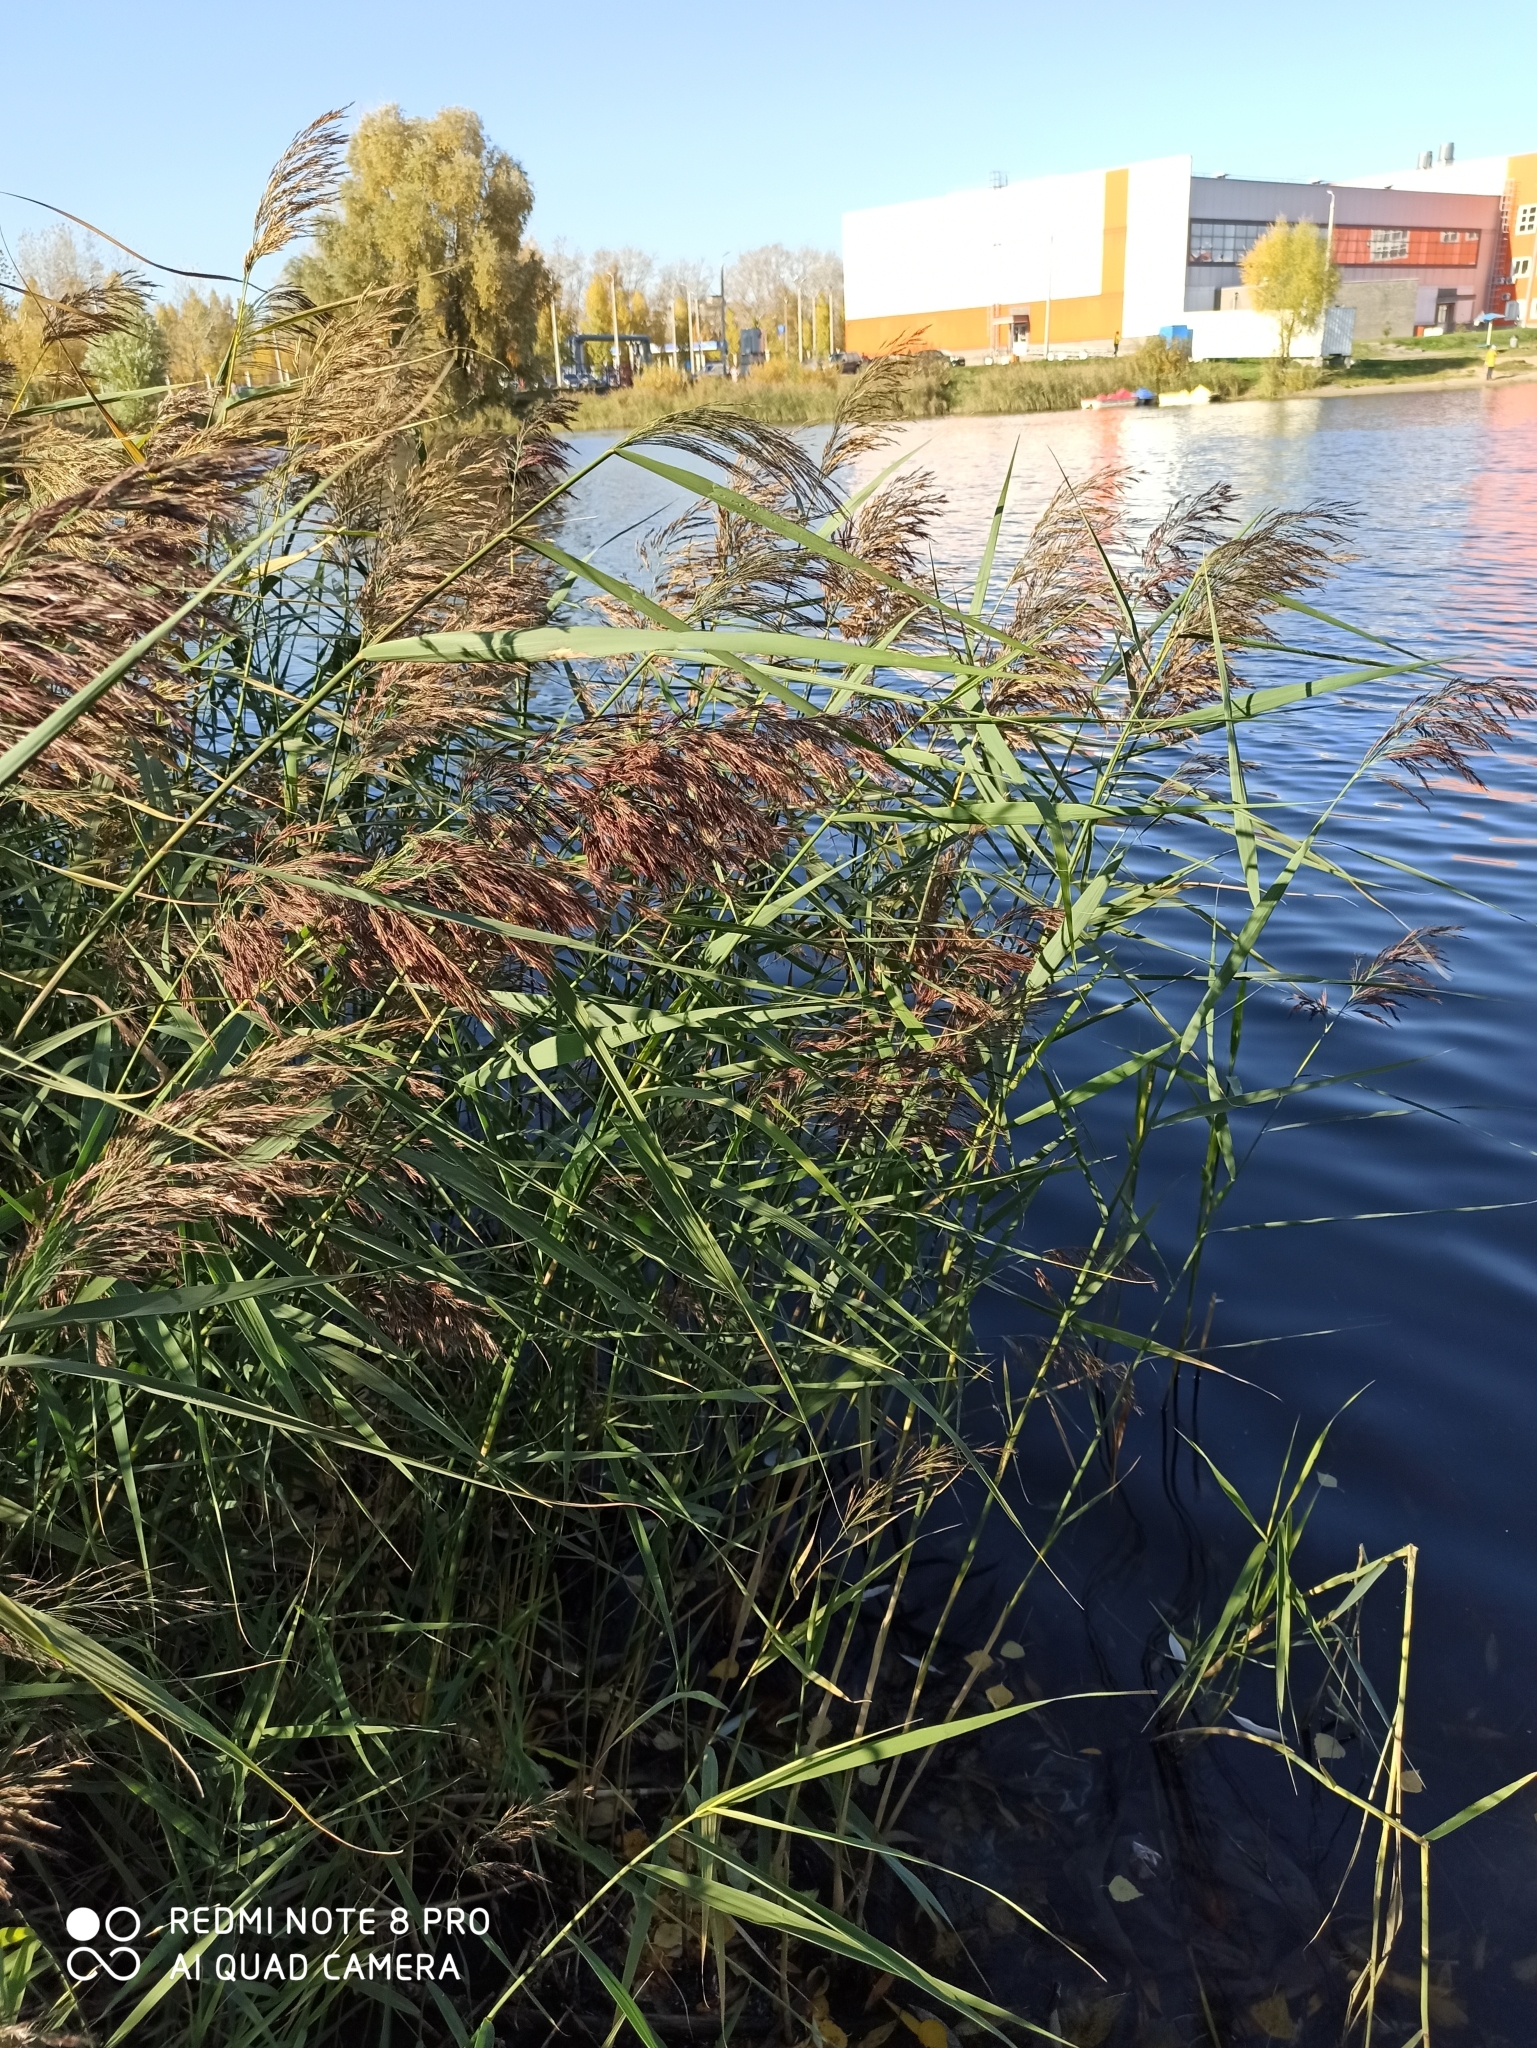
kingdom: Plantae
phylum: Tracheophyta
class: Liliopsida
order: Poales
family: Poaceae
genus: Phragmites
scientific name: Phragmites australis
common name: Common reed
